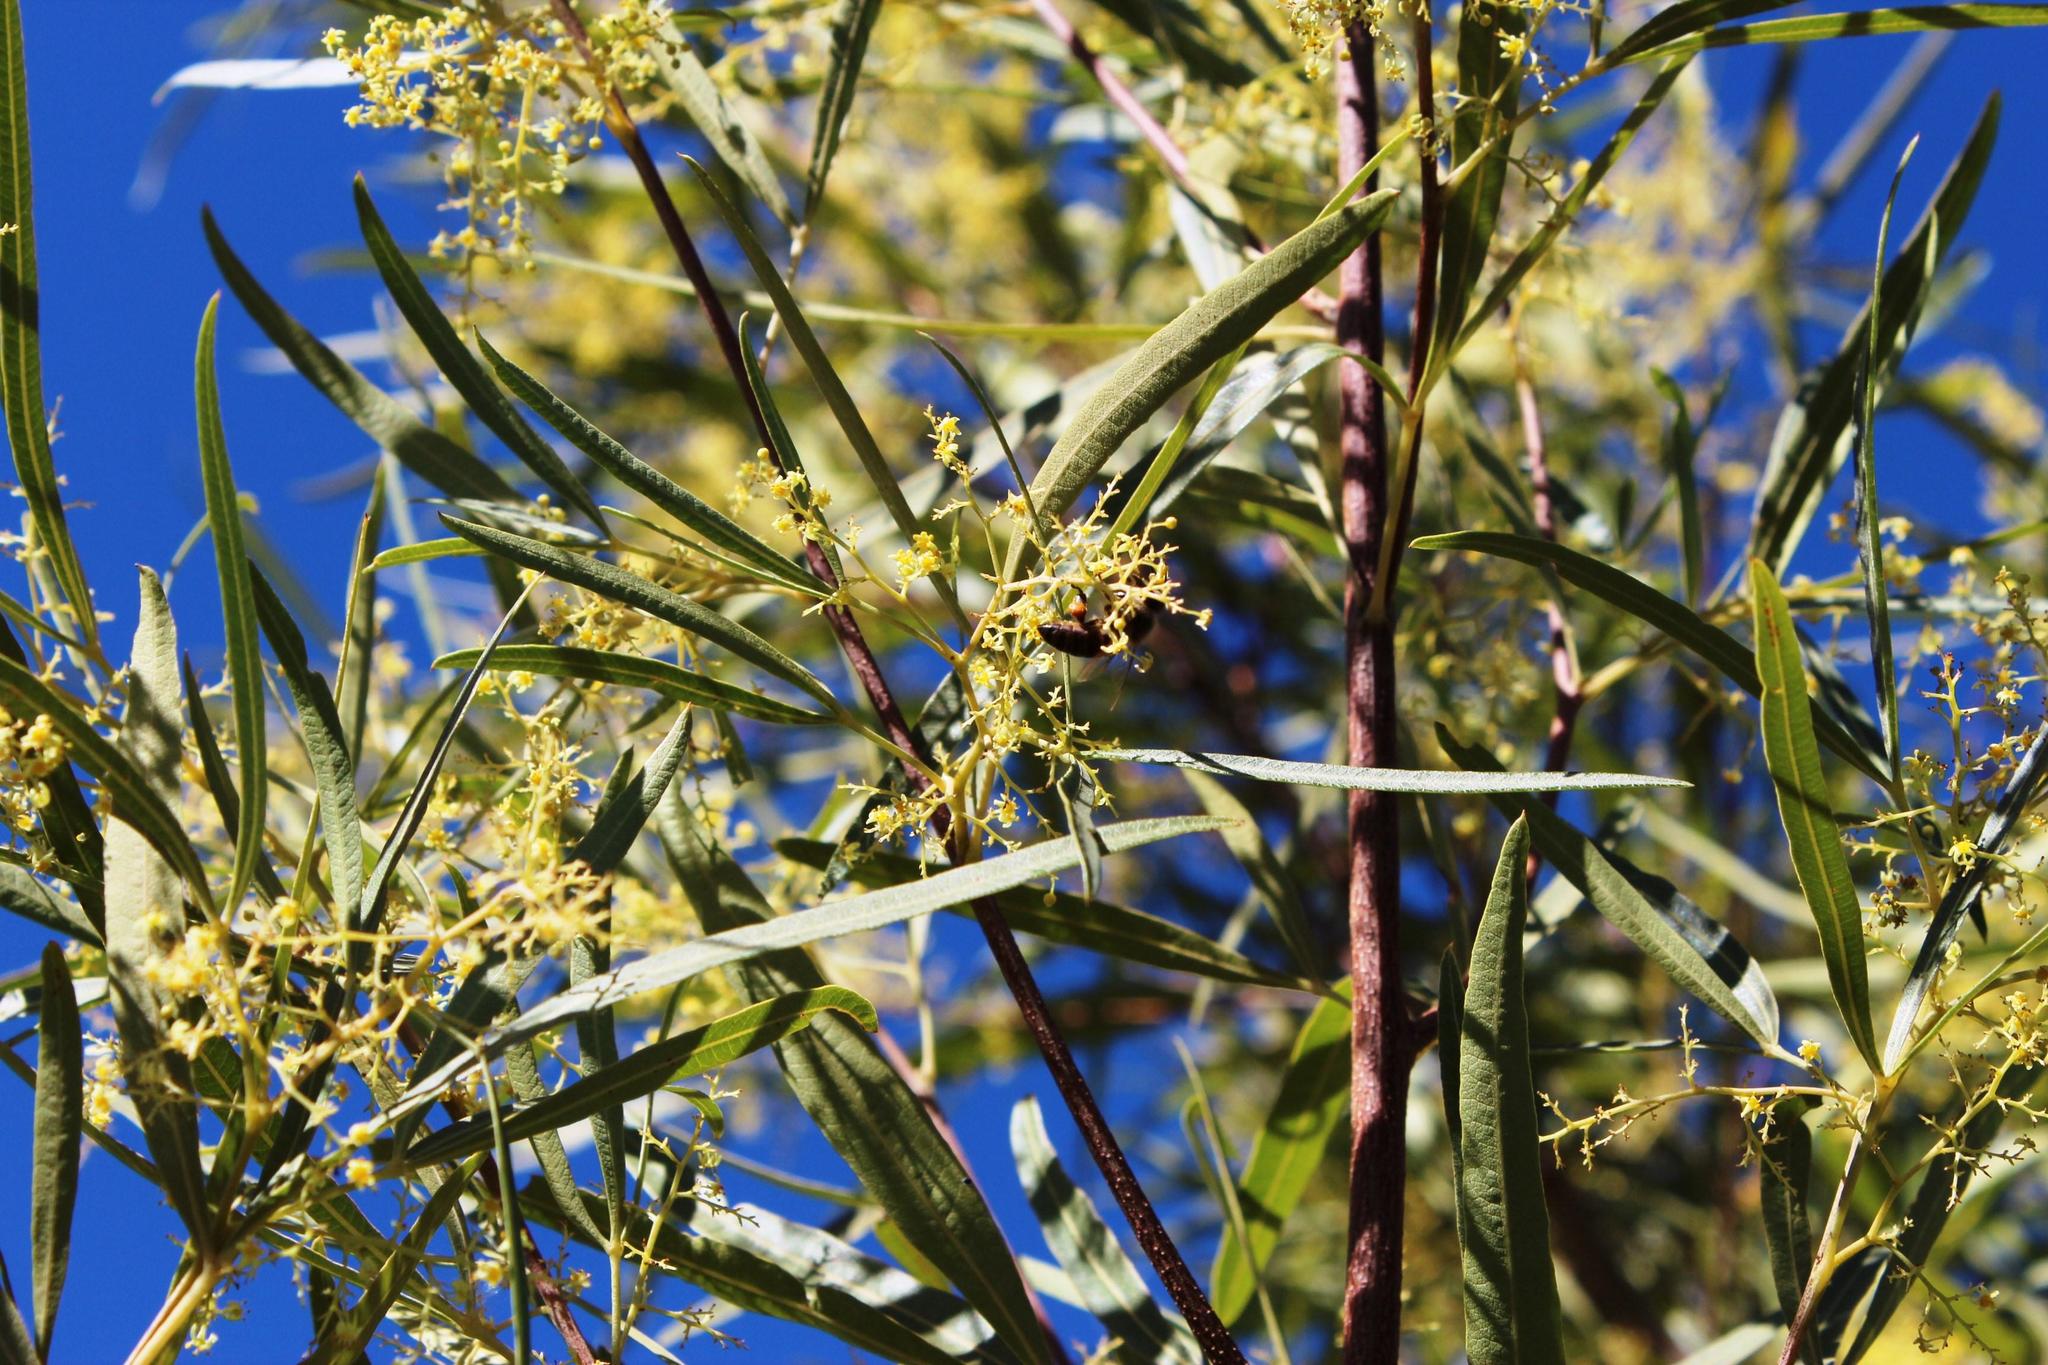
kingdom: Plantae
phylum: Tracheophyta
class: Magnoliopsida
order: Sapindales
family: Anacardiaceae
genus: Searsia
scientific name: Searsia lancea
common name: Cashew
